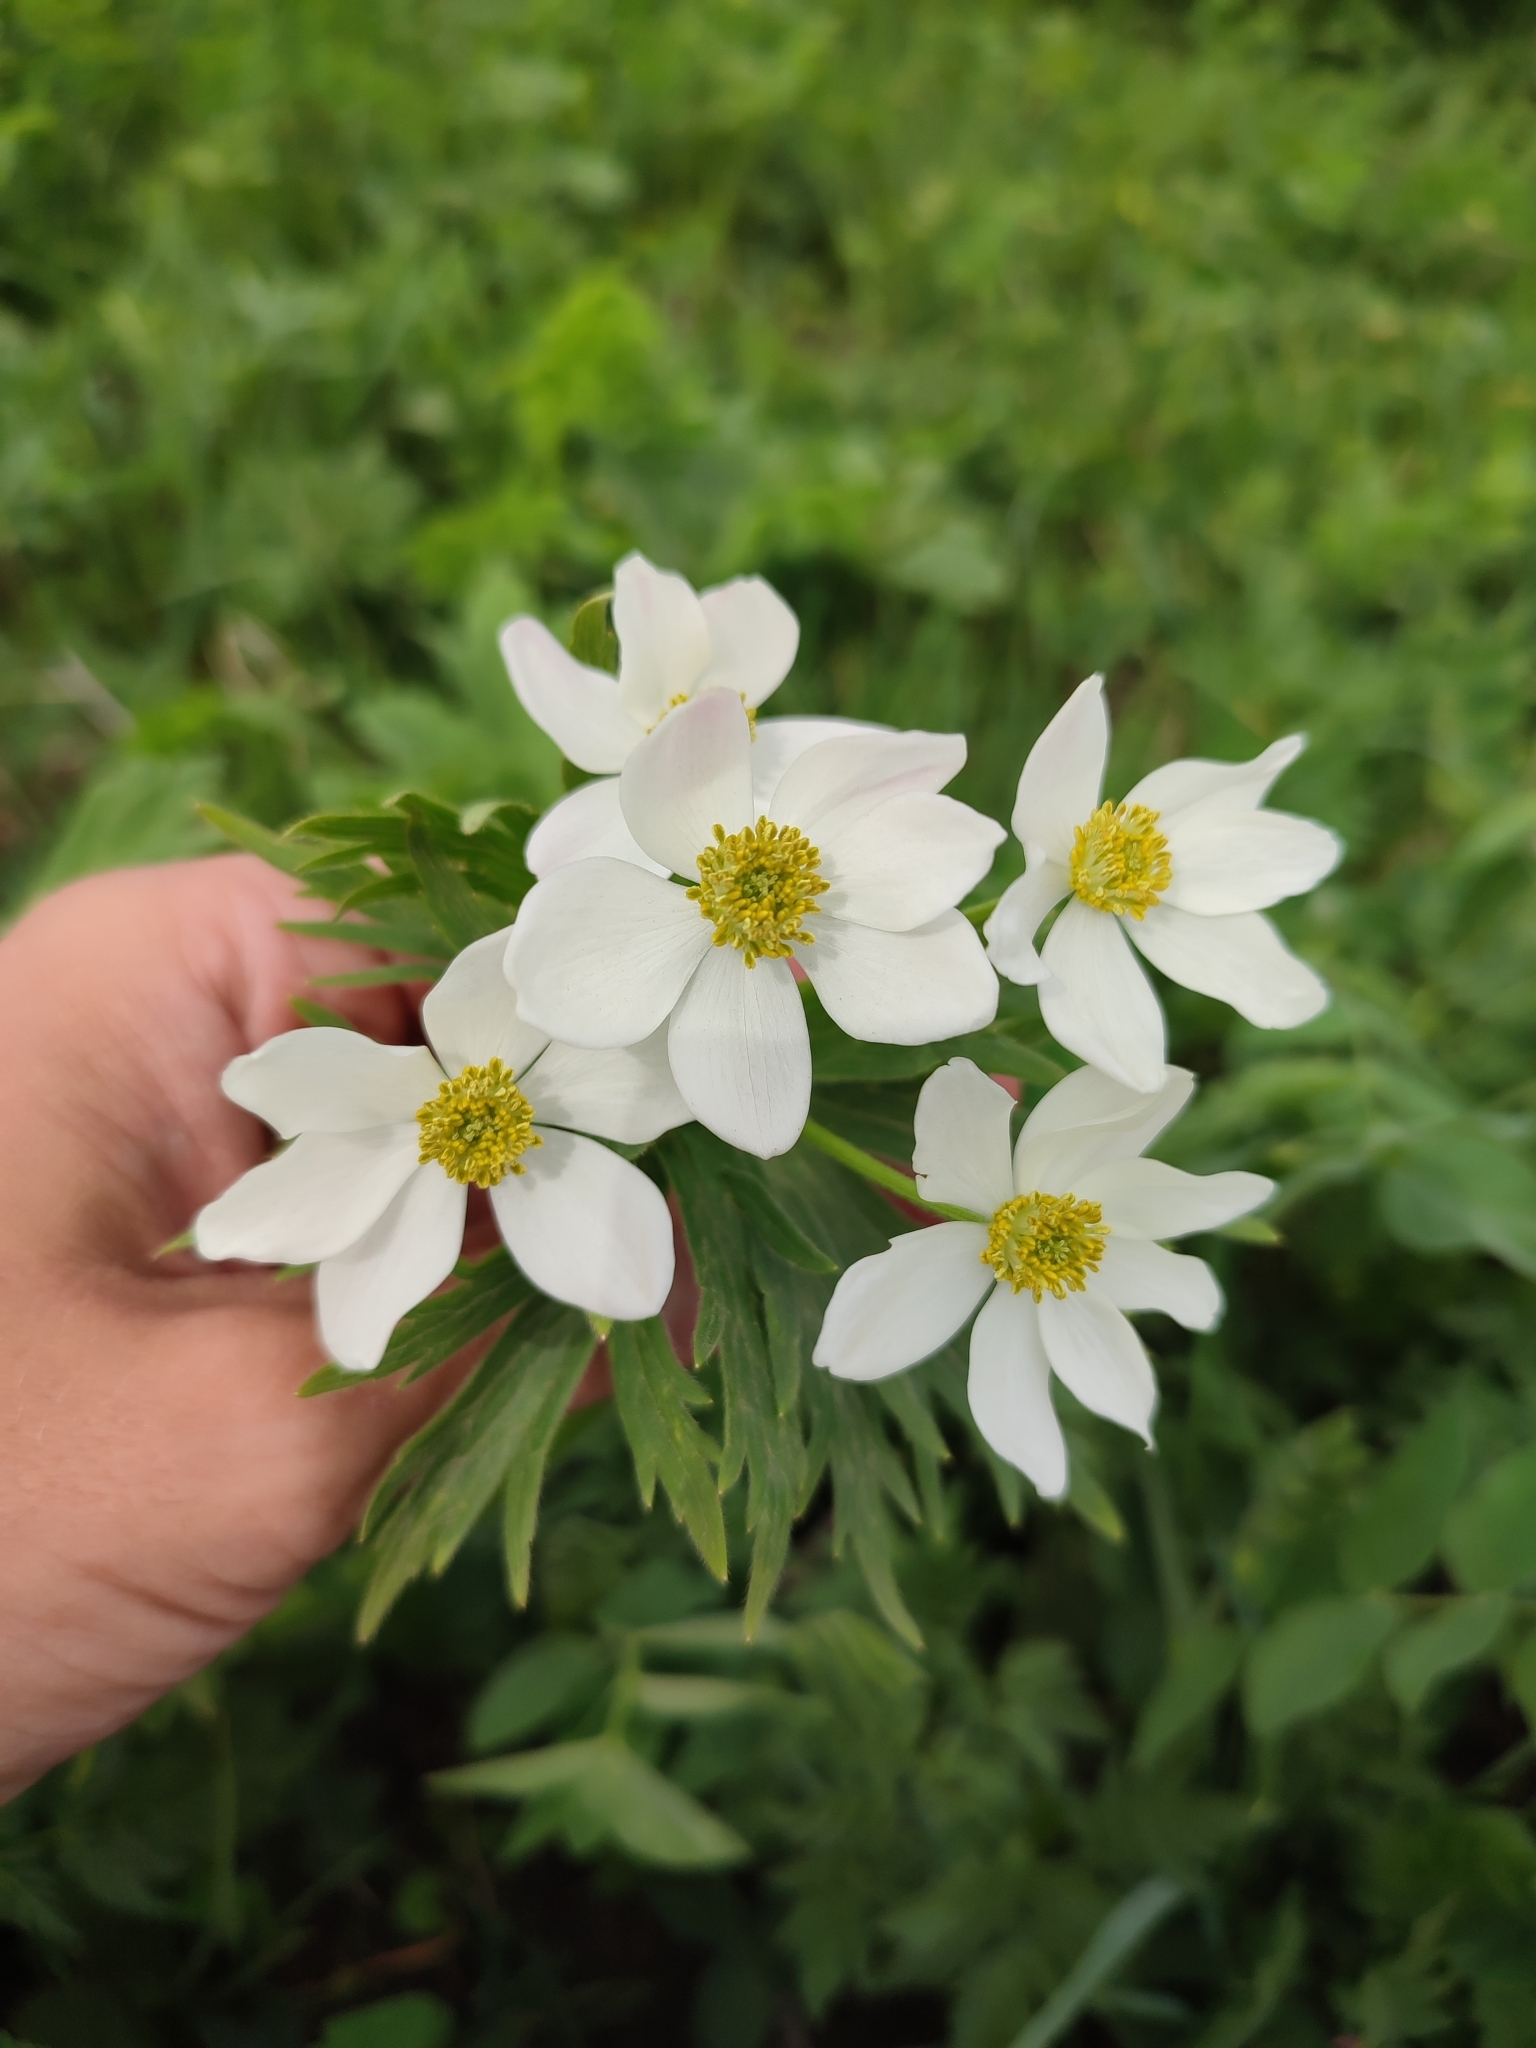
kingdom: Plantae
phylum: Tracheophyta
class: Magnoliopsida
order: Ranunculales
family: Ranunculaceae
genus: Anemonastrum
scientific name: Anemonastrum narcissiflorum
